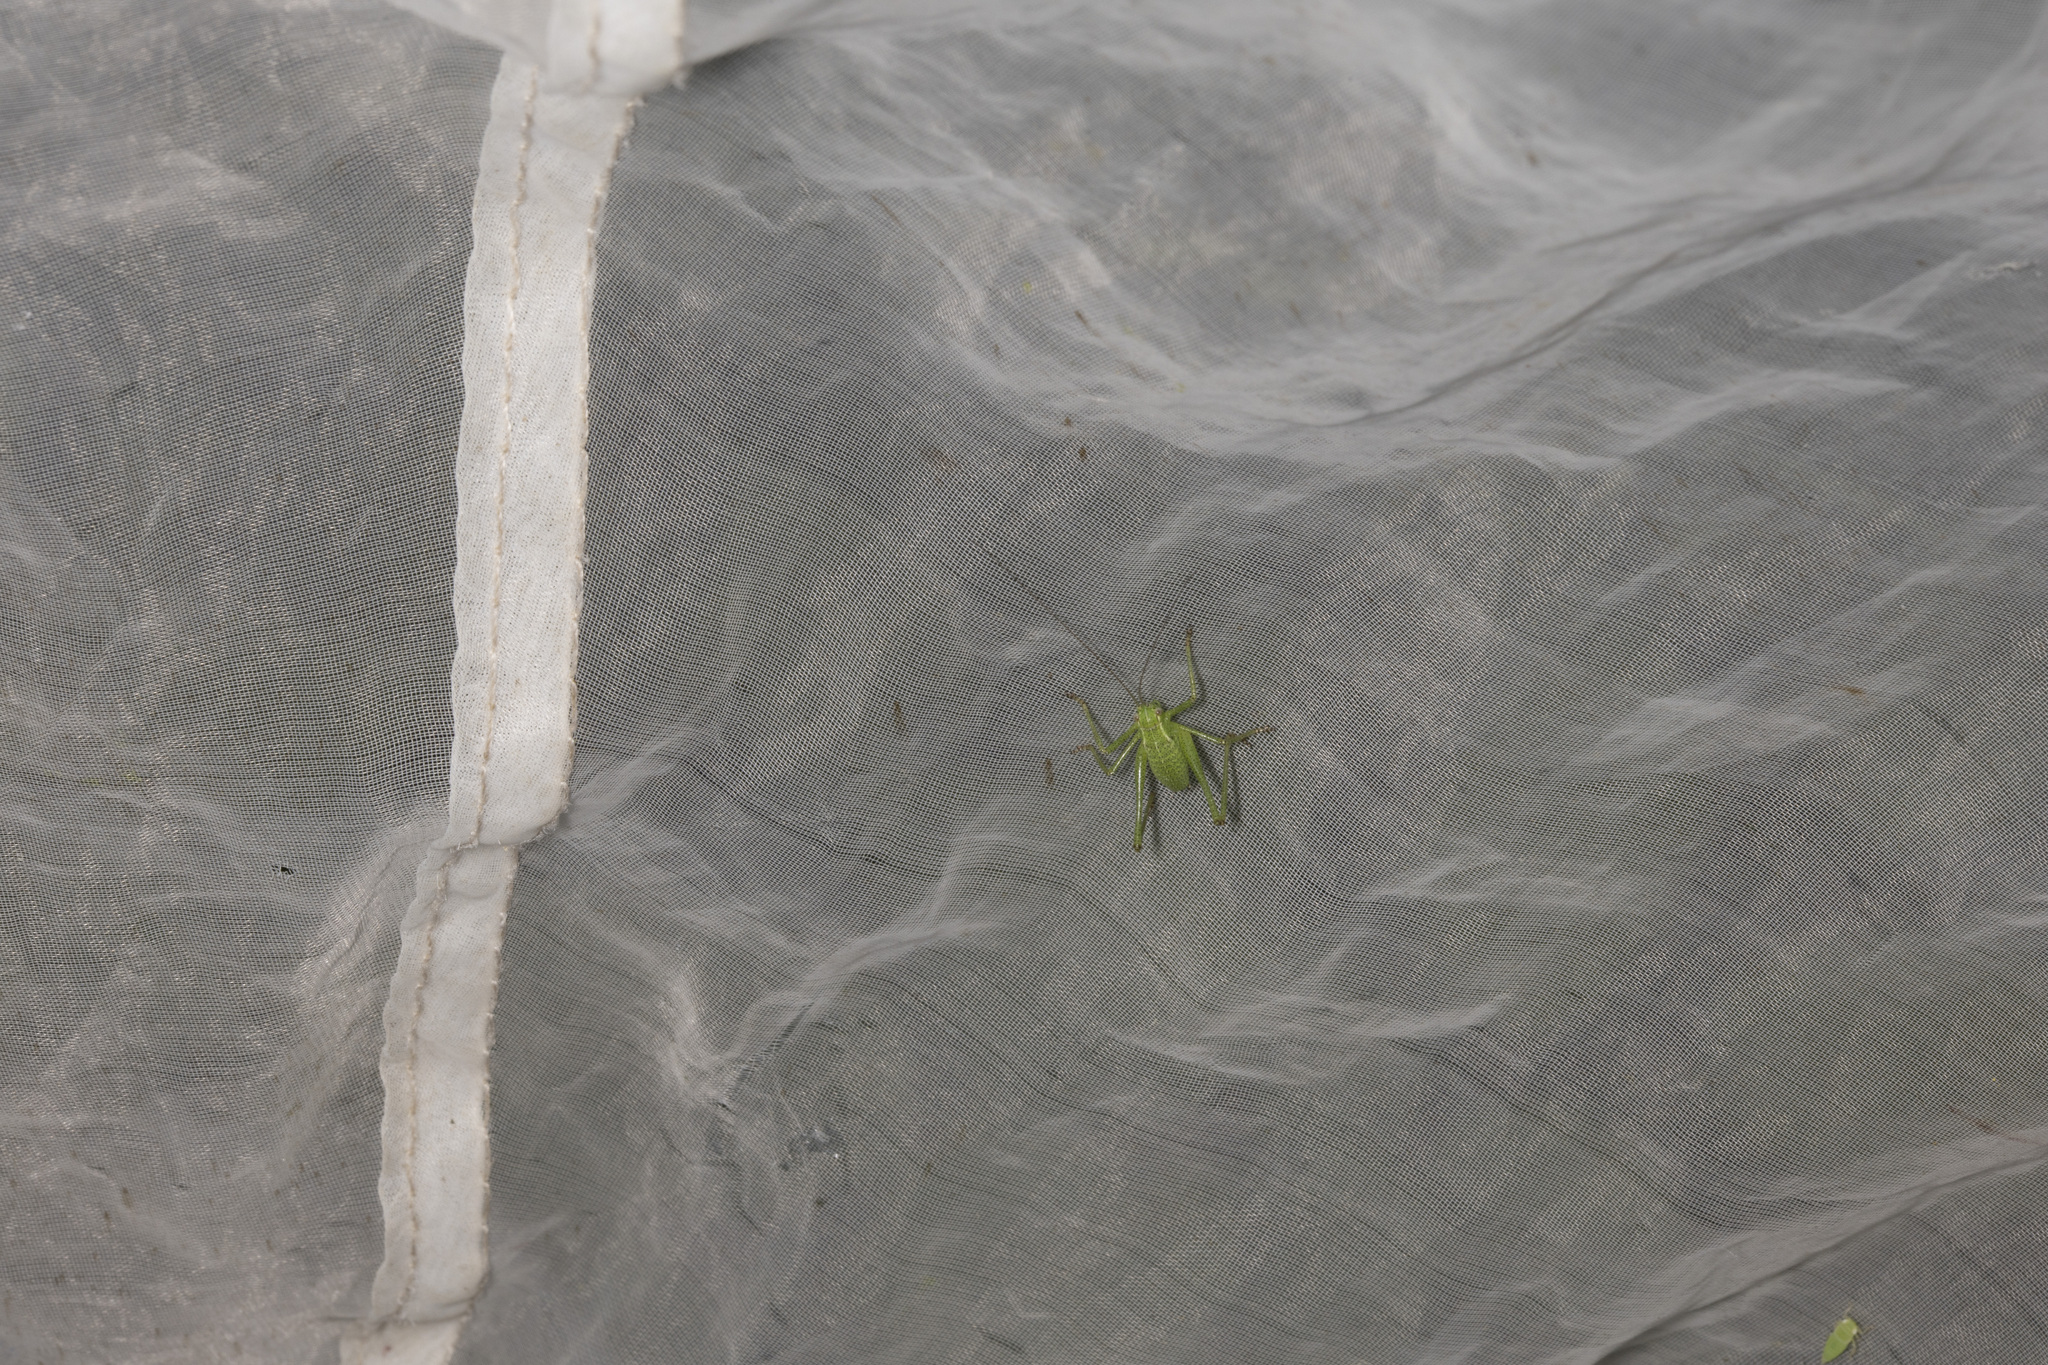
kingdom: Animalia
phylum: Arthropoda
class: Insecta
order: Orthoptera
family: Tettigoniidae
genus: Leptophyes
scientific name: Leptophyes punctatissima
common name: Speckled bush-cricket
